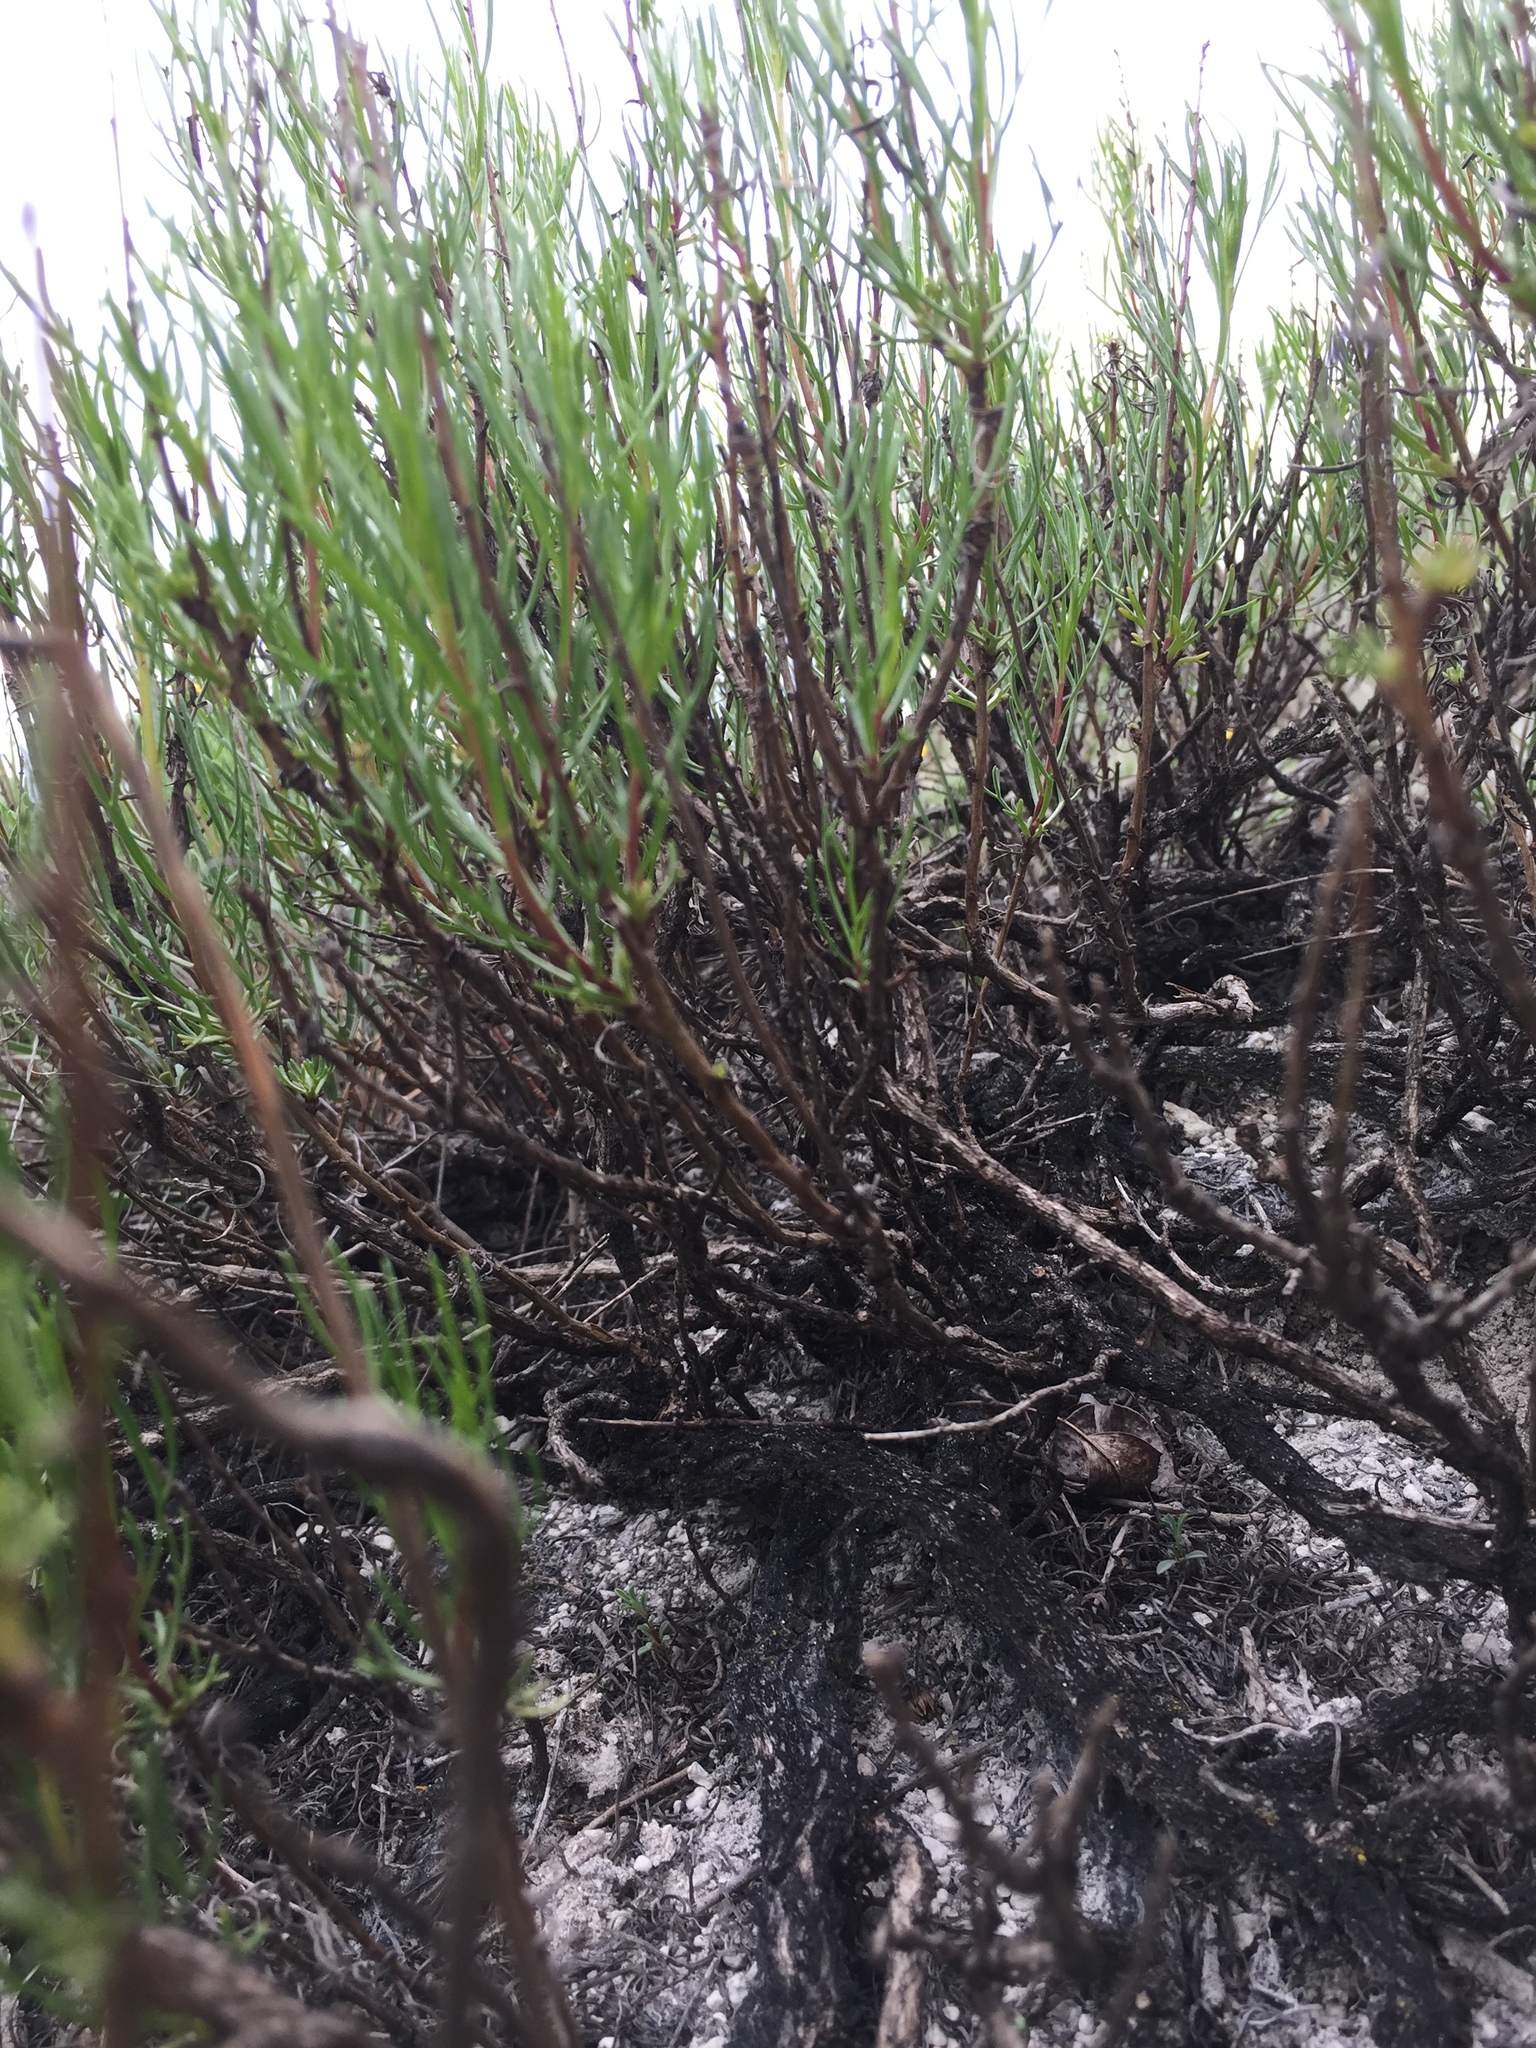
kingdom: Plantae
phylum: Tracheophyta
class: Magnoliopsida
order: Asterales
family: Asteraceae
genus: Artemisia
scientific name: Artemisia salsoloides
